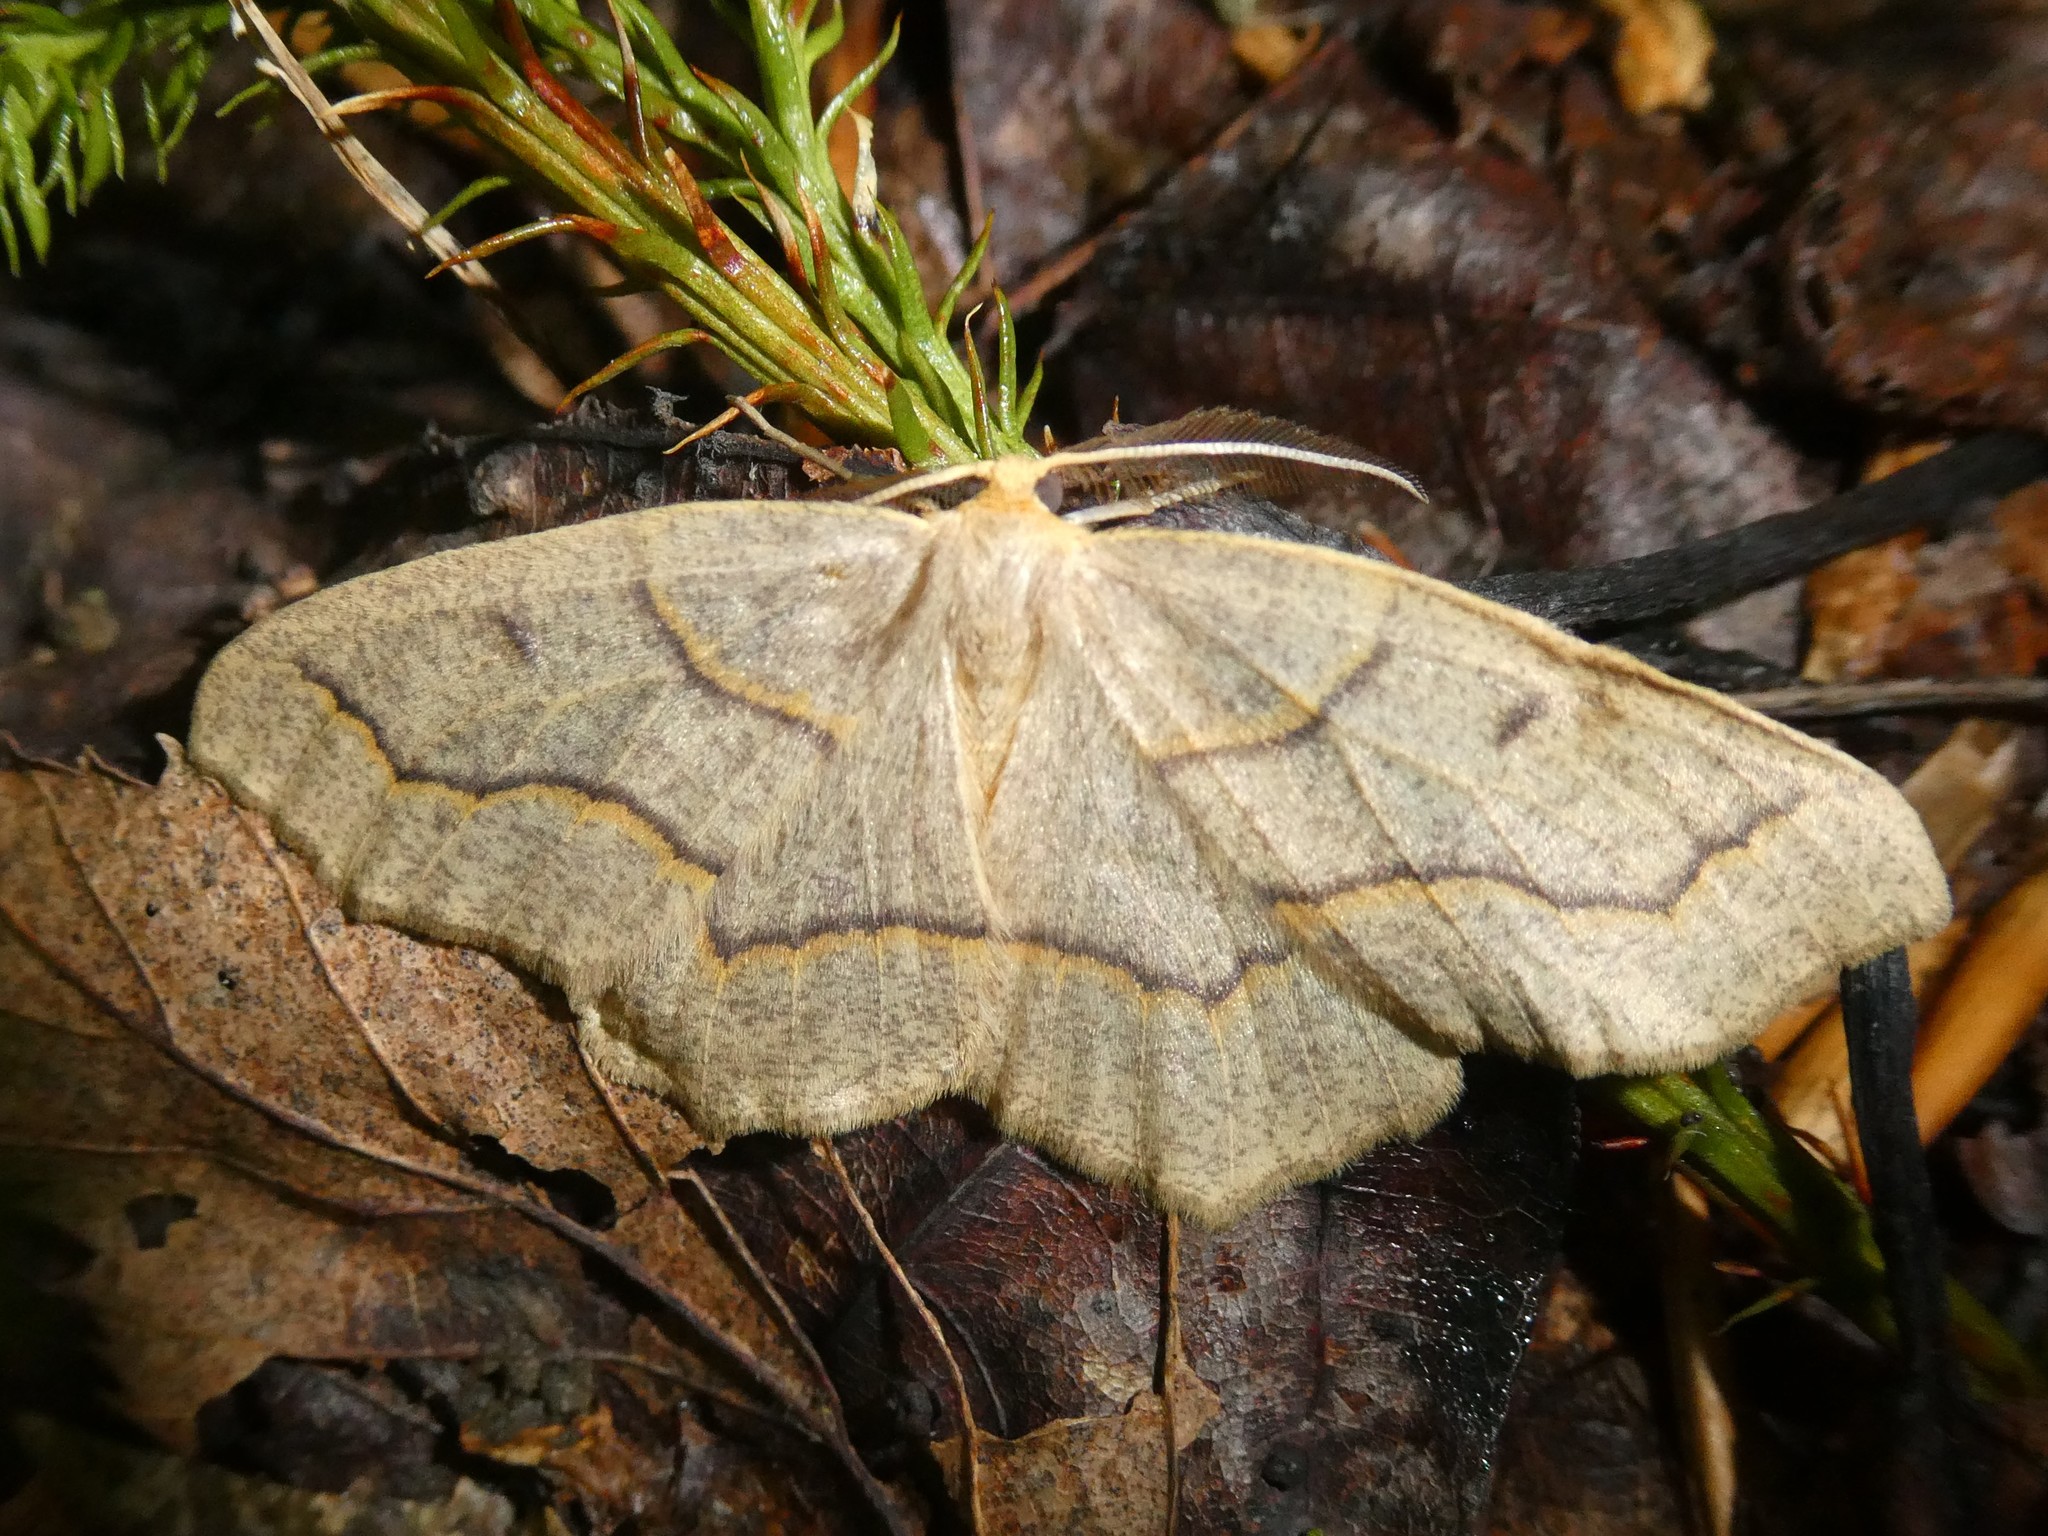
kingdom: Animalia
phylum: Arthropoda
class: Insecta
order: Lepidoptera
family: Geometridae
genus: Lambdina
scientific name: Lambdina fiscellaria
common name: Hemlock looper
